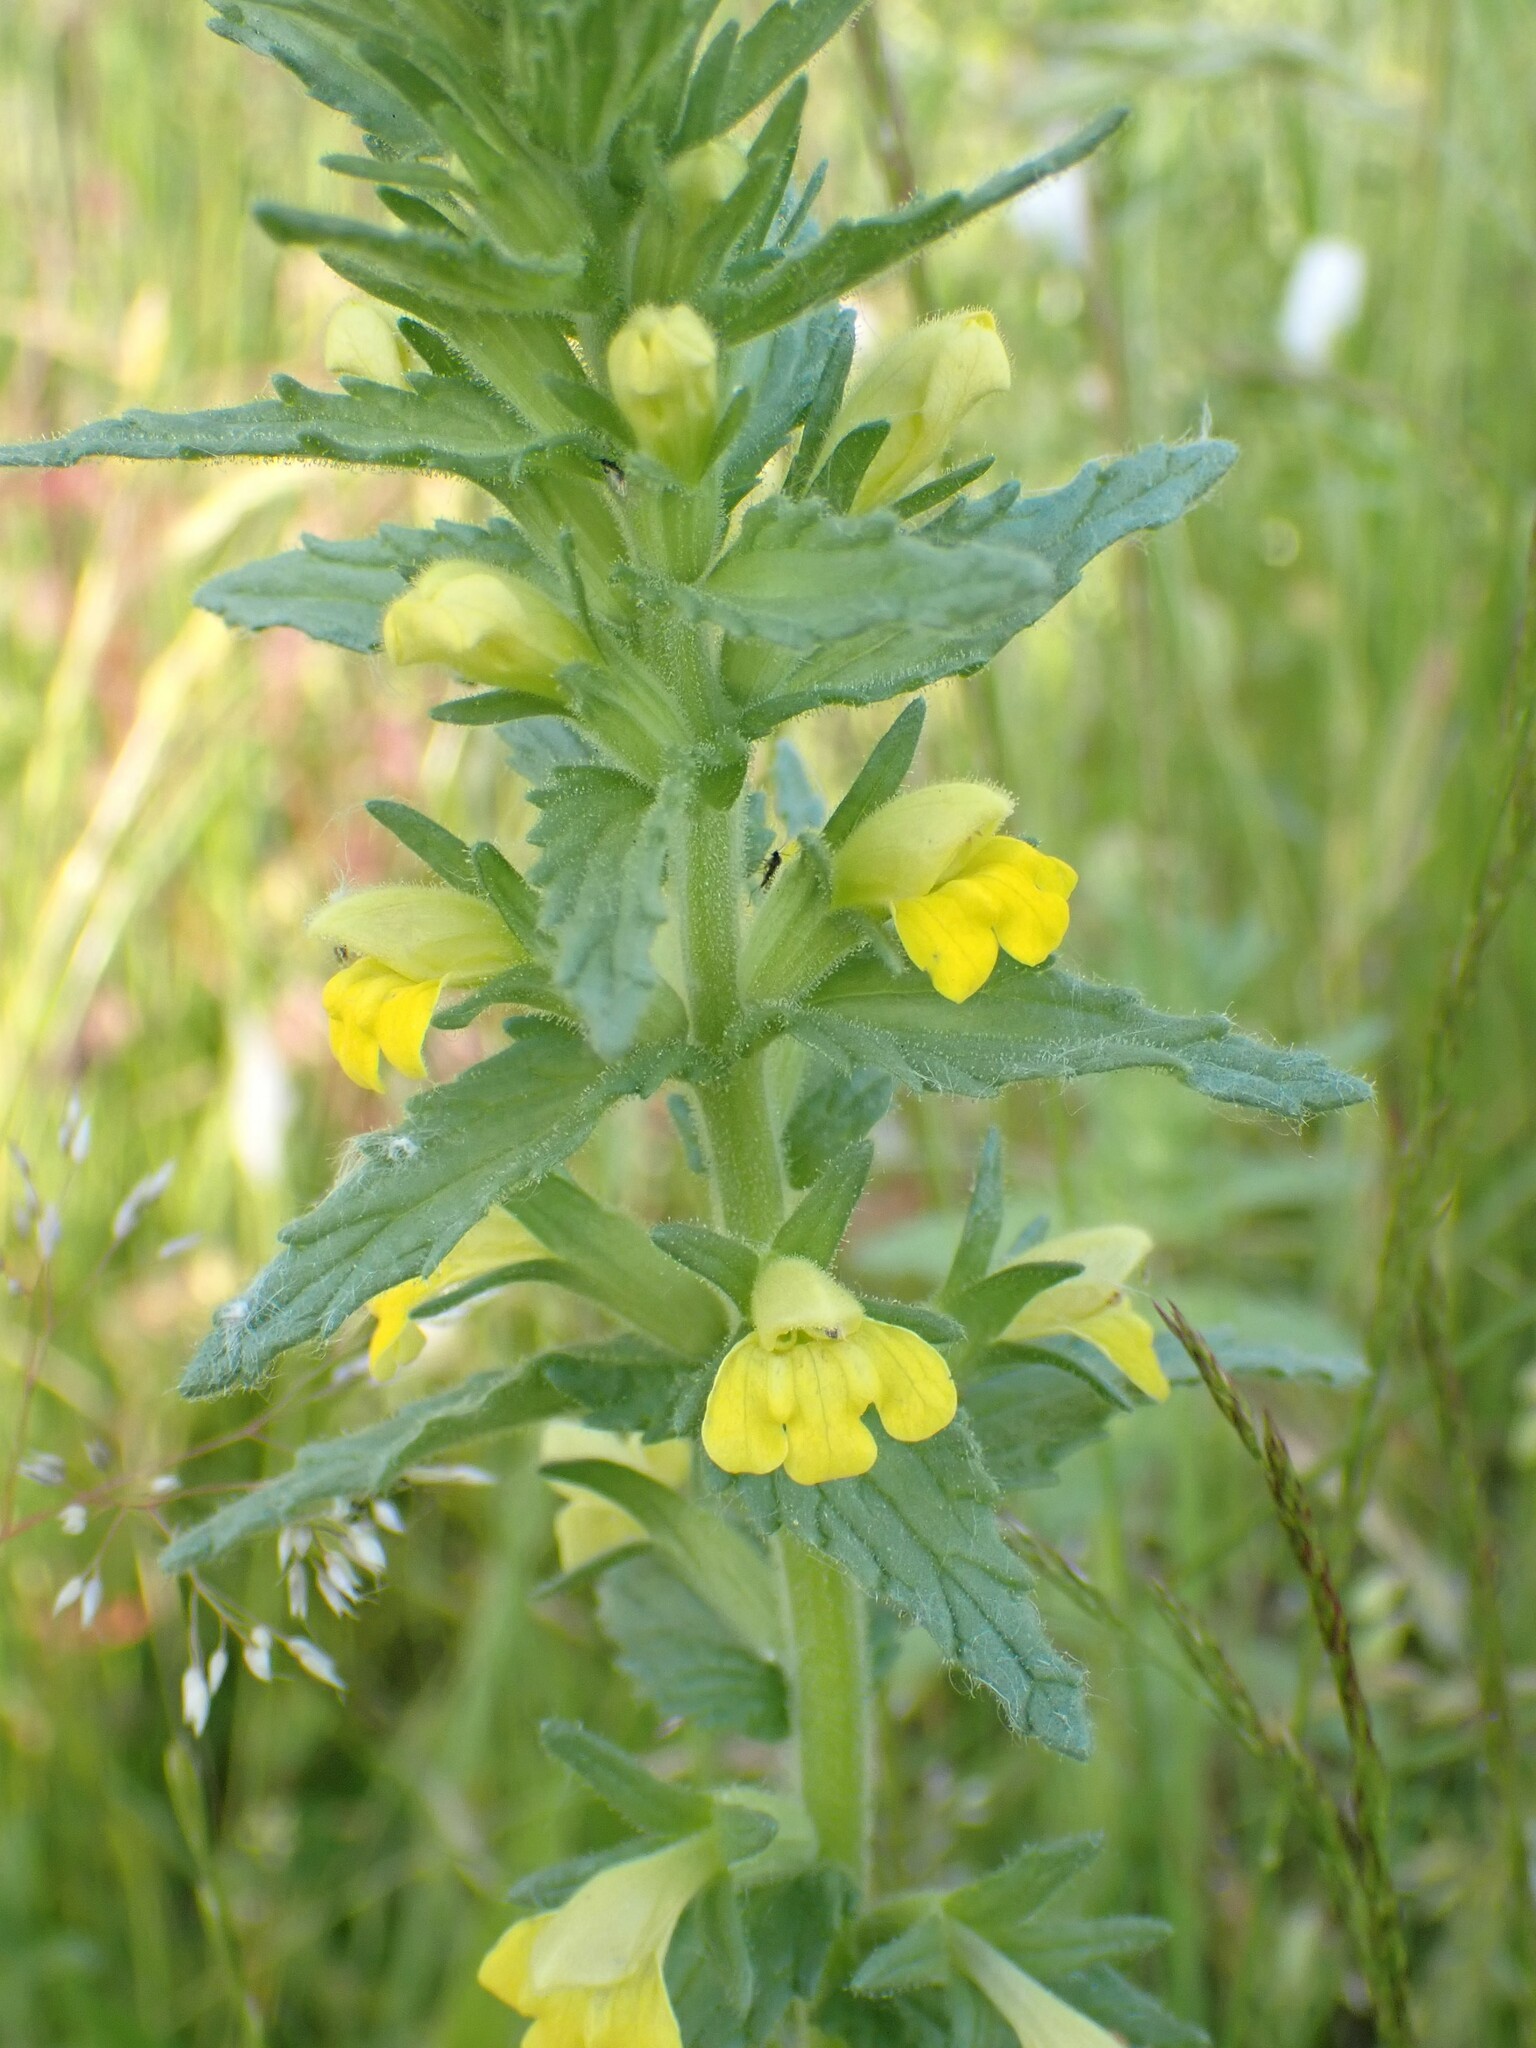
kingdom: Plantae
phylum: Tracheophyta
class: Magnoliopsida
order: Lamiales
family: Orobanchaceae
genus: Bellardia
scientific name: Bellardia viscosa
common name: Sticky parentucellia
